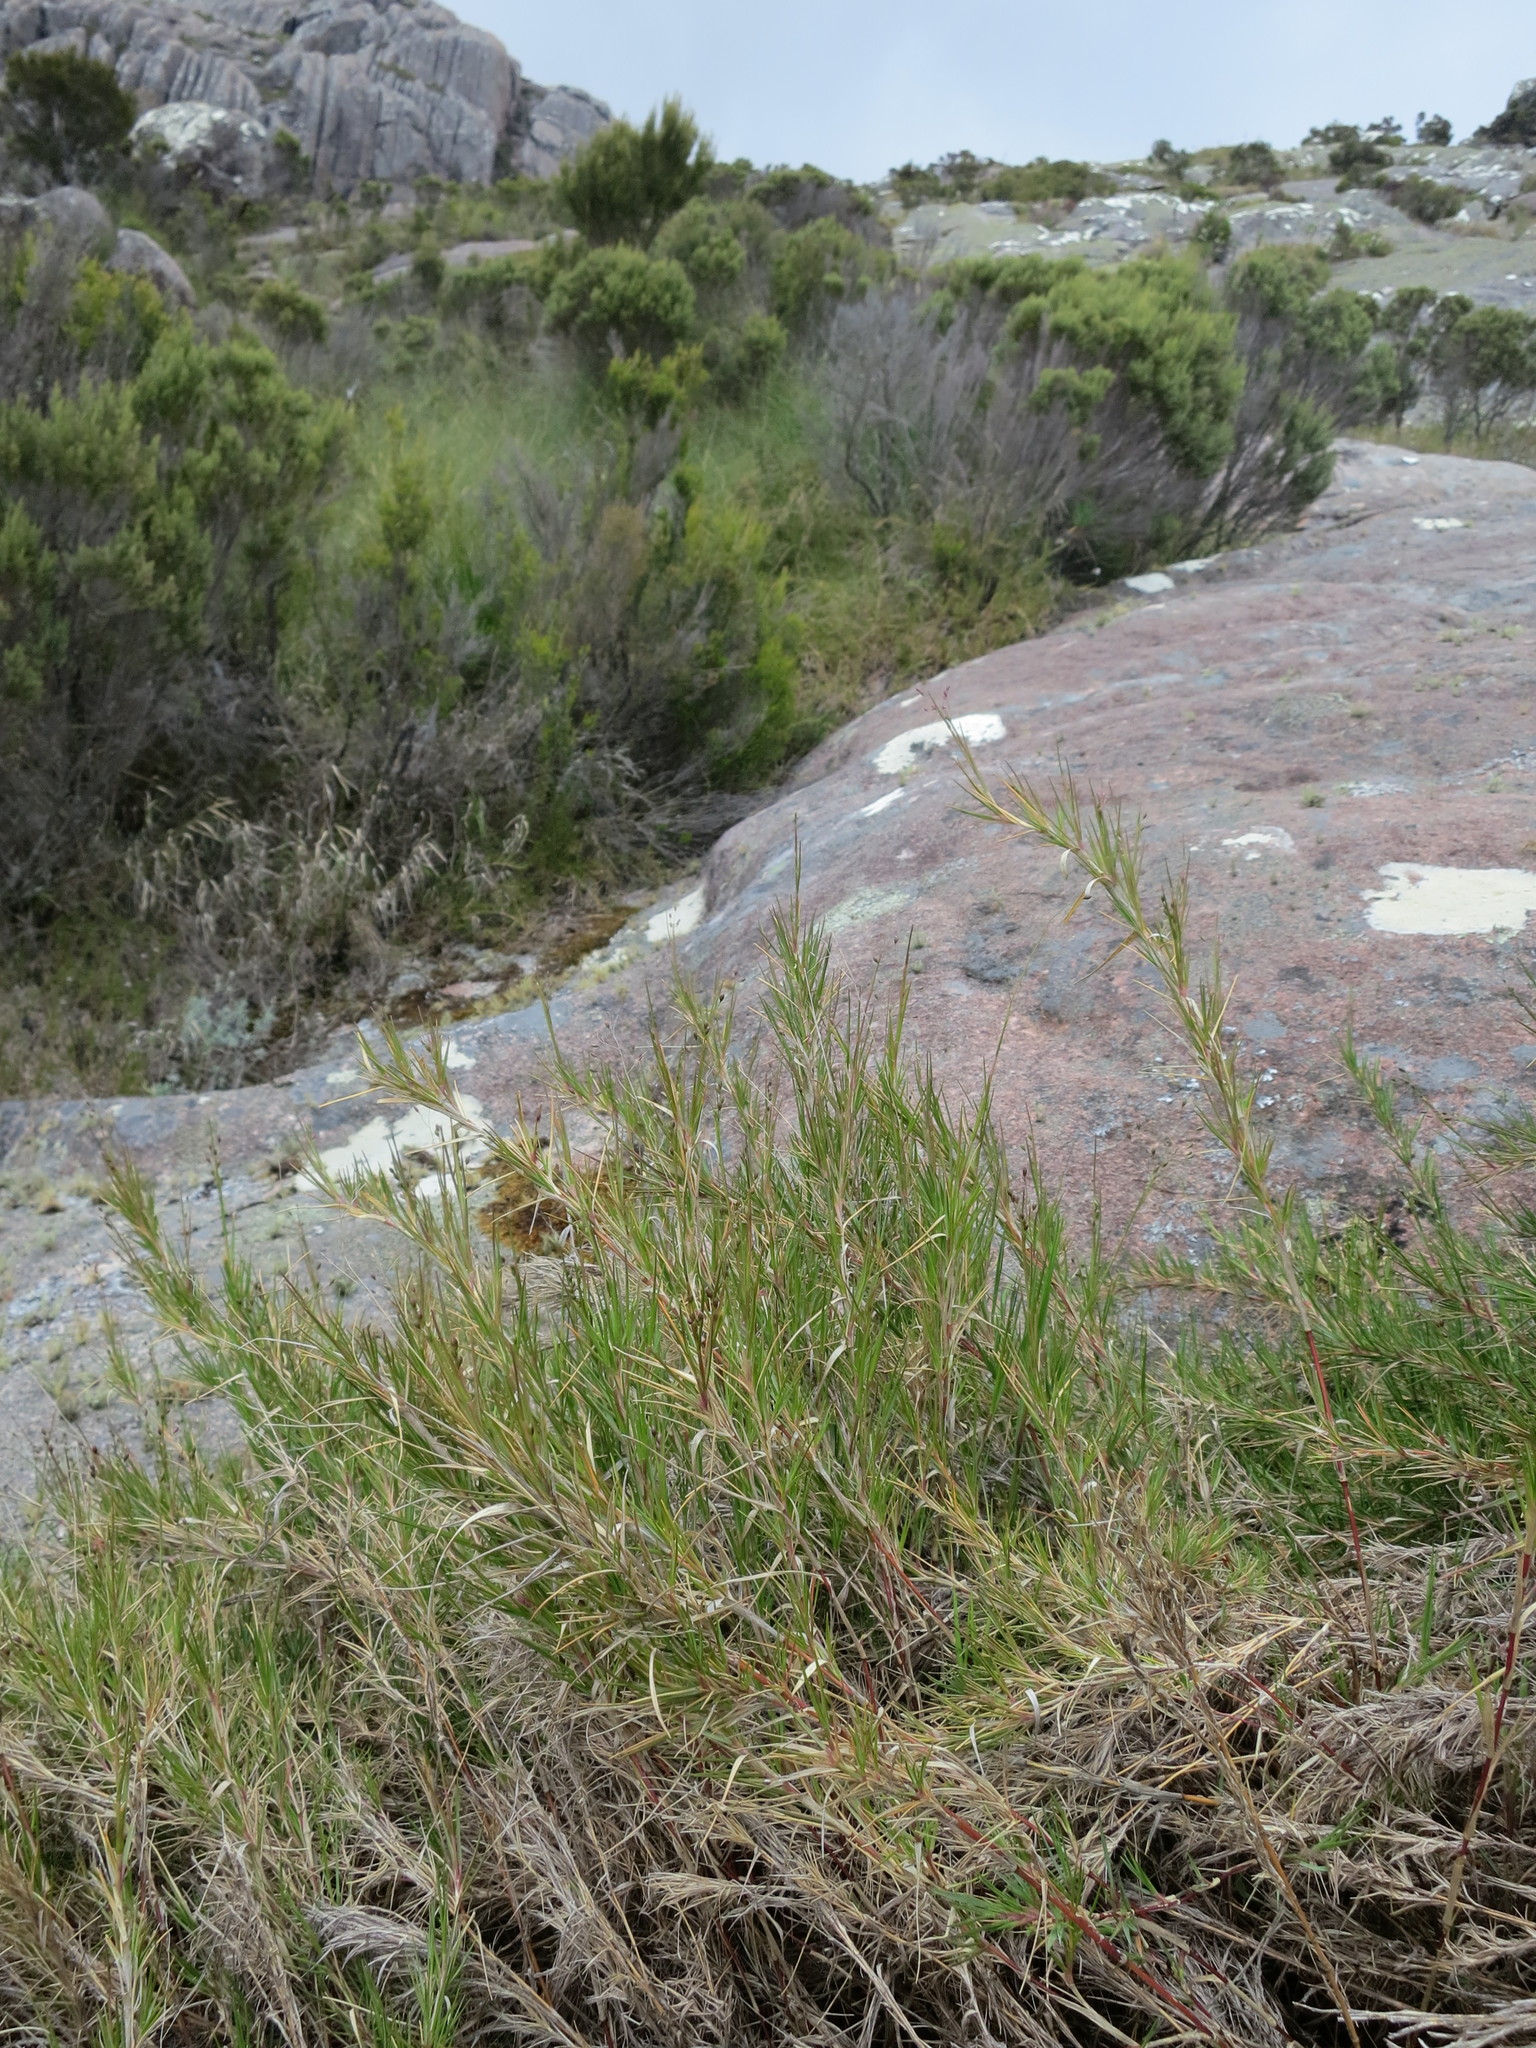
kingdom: Plantae
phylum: Tracheophyta
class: Liliopsida
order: Poales
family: Poaceae
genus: Panicum
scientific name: Panicum spergulifolium
